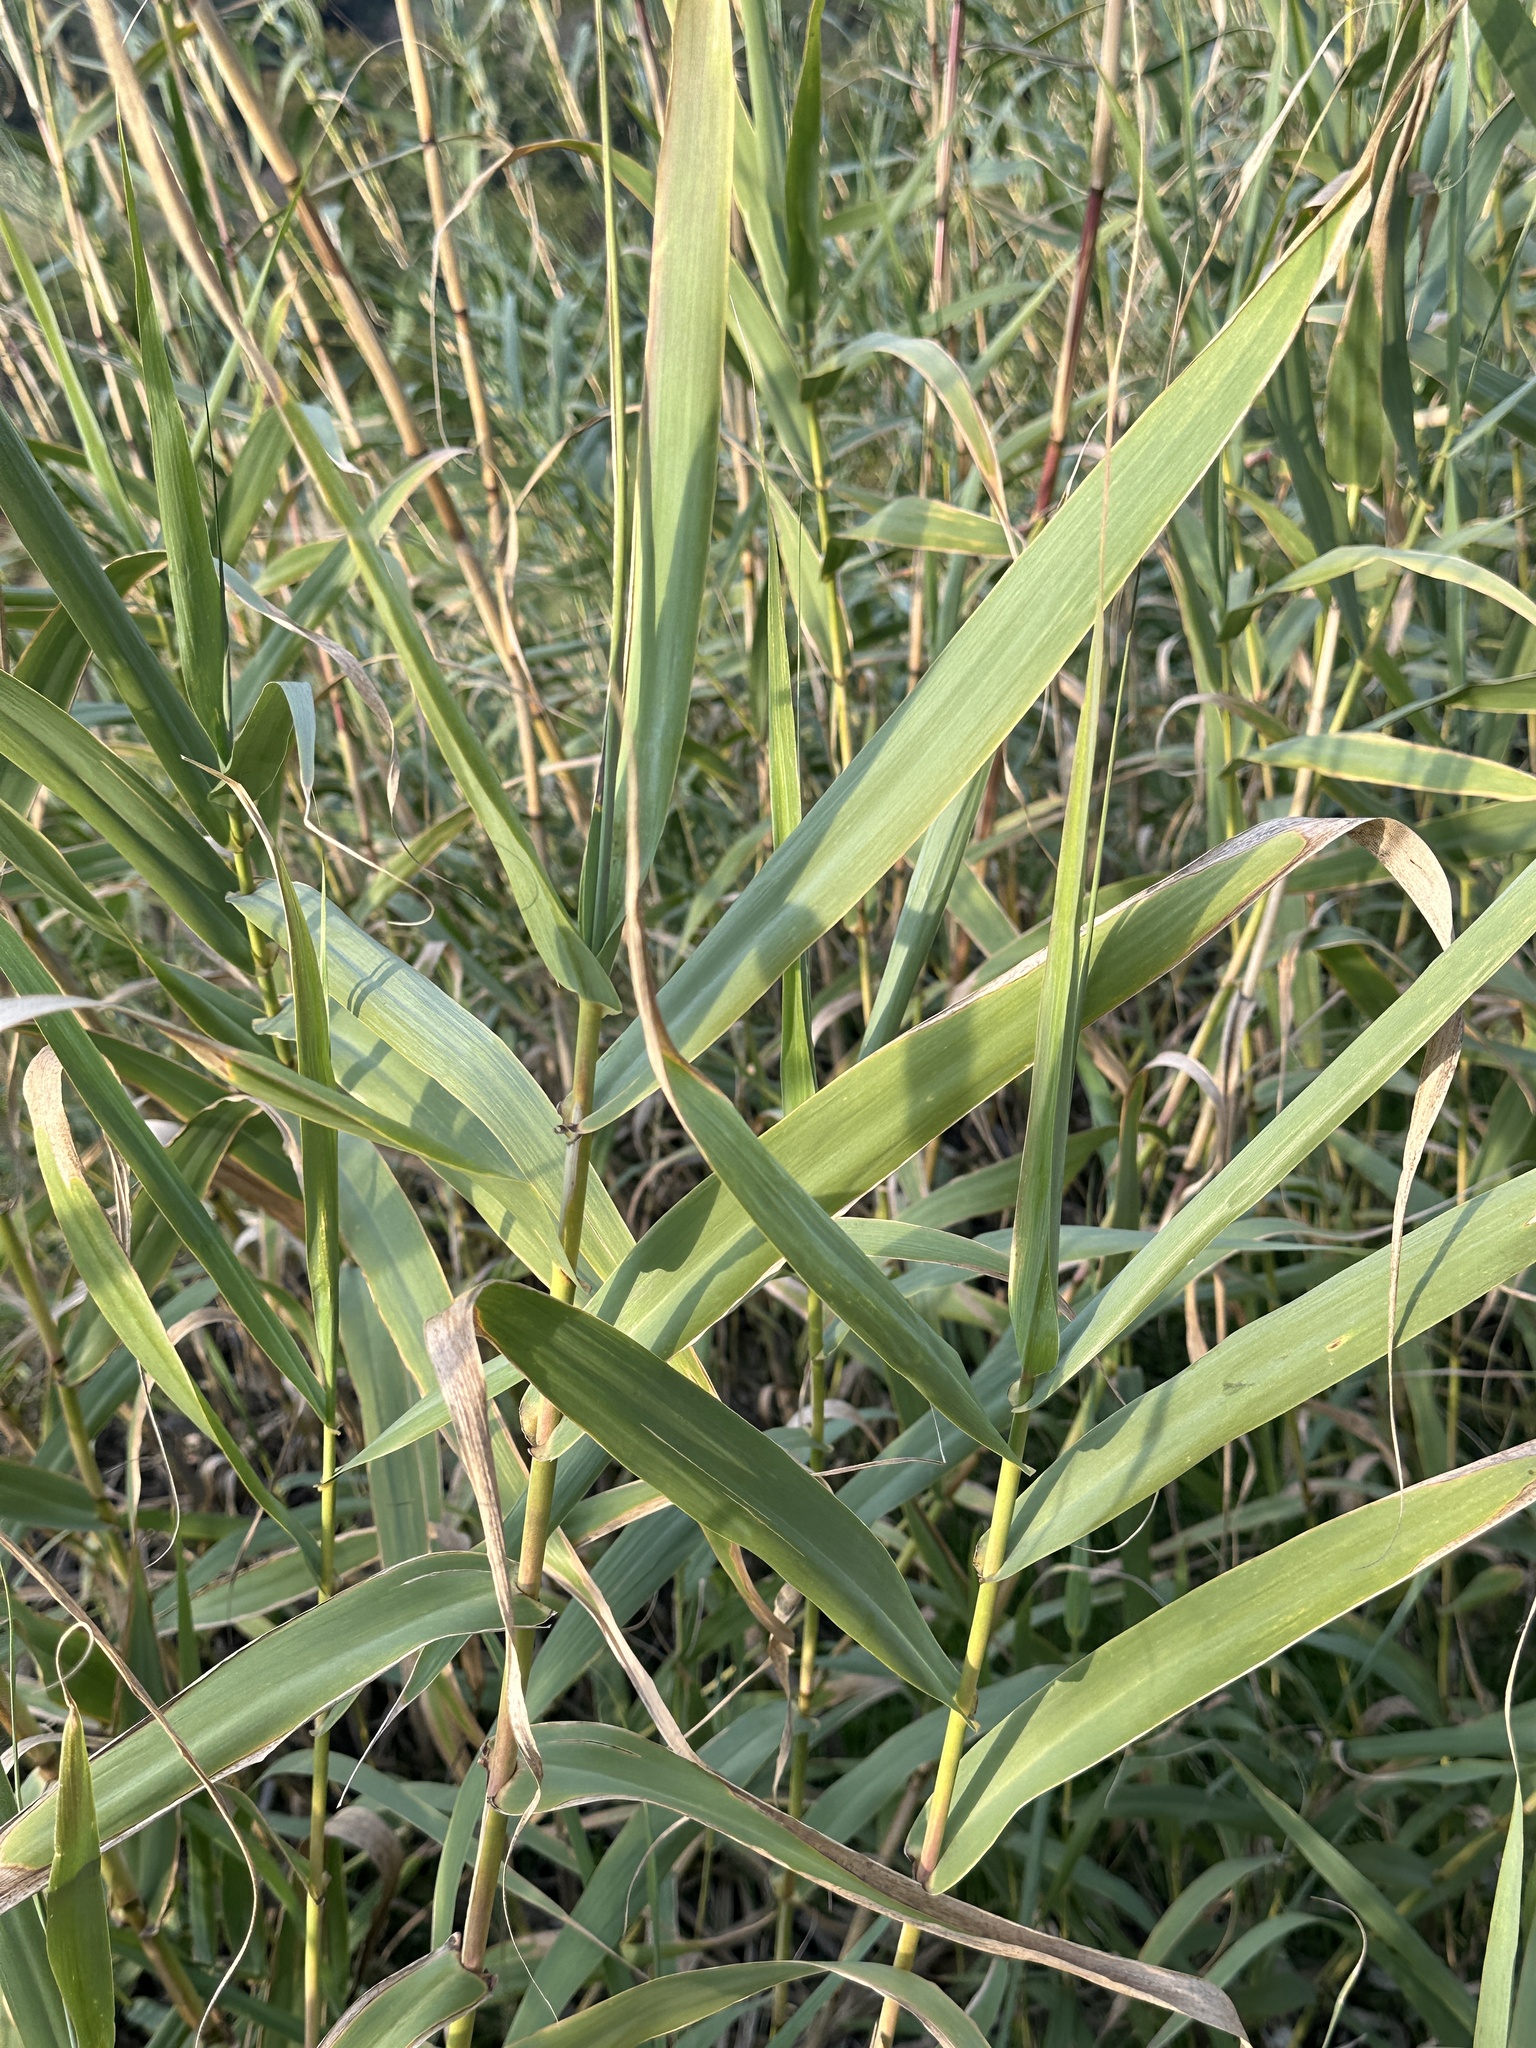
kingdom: Plantae
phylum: Tracheophyta
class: Liliopsida
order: Poales
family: Poaceae
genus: Arundo
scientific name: Arundo donax
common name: Giant reed
